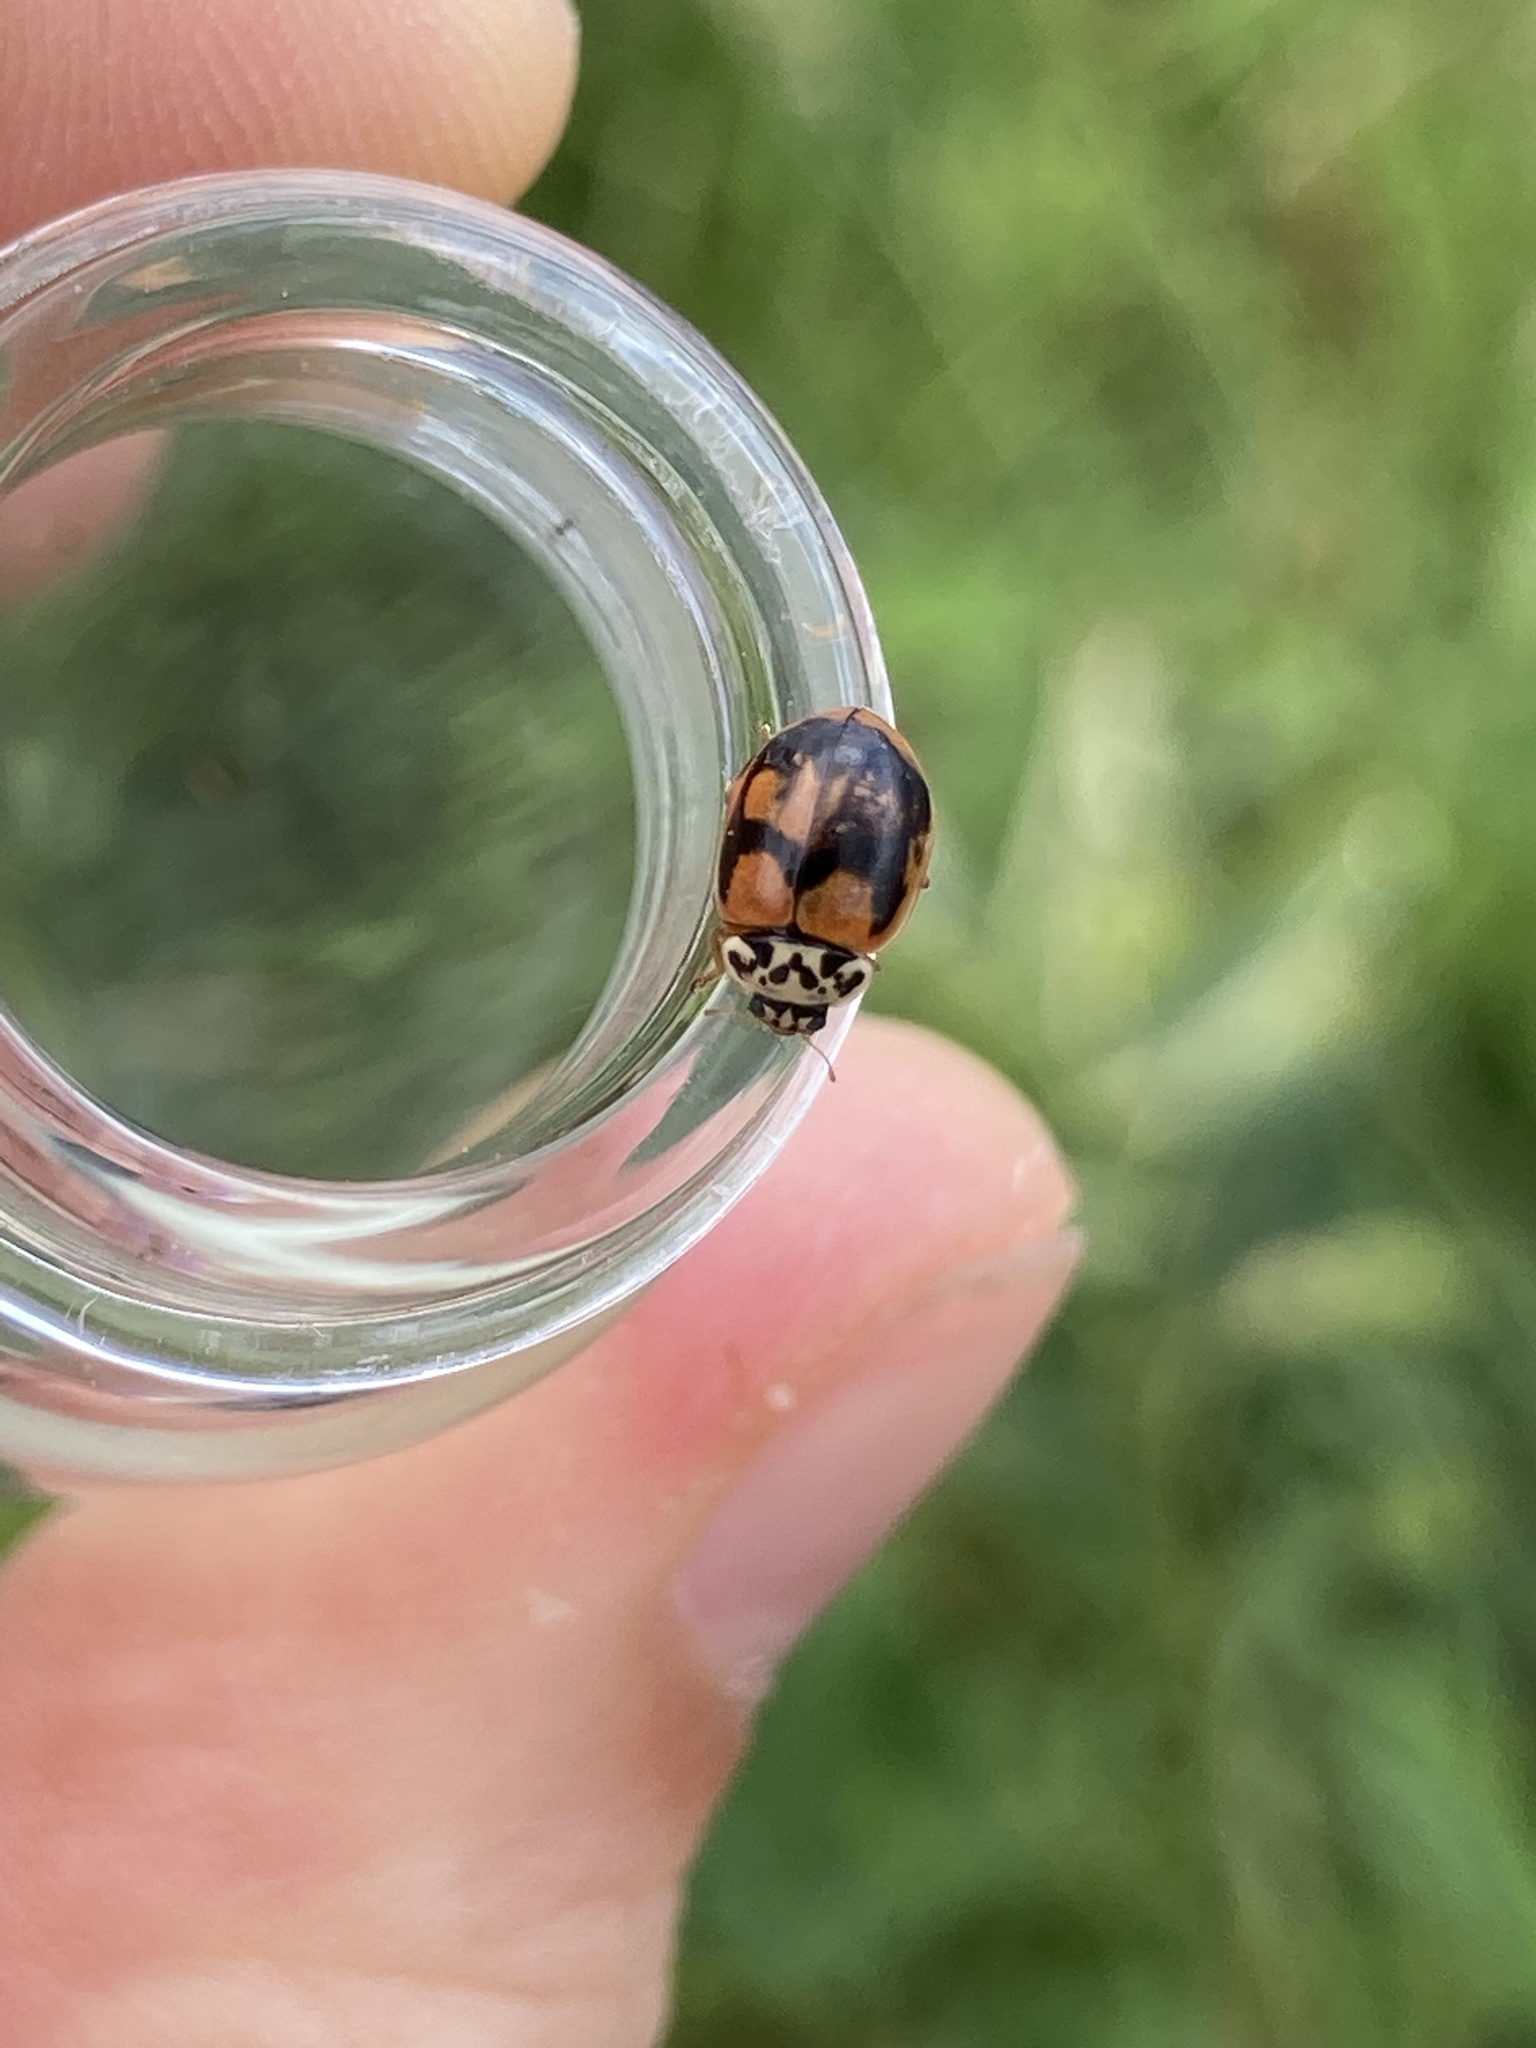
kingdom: Animalia
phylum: Arthropoda
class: Insecta
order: Coleoptera
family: Coccinellidae
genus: Mulsantina
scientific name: Mulsantina picta
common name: Painted ladybird
